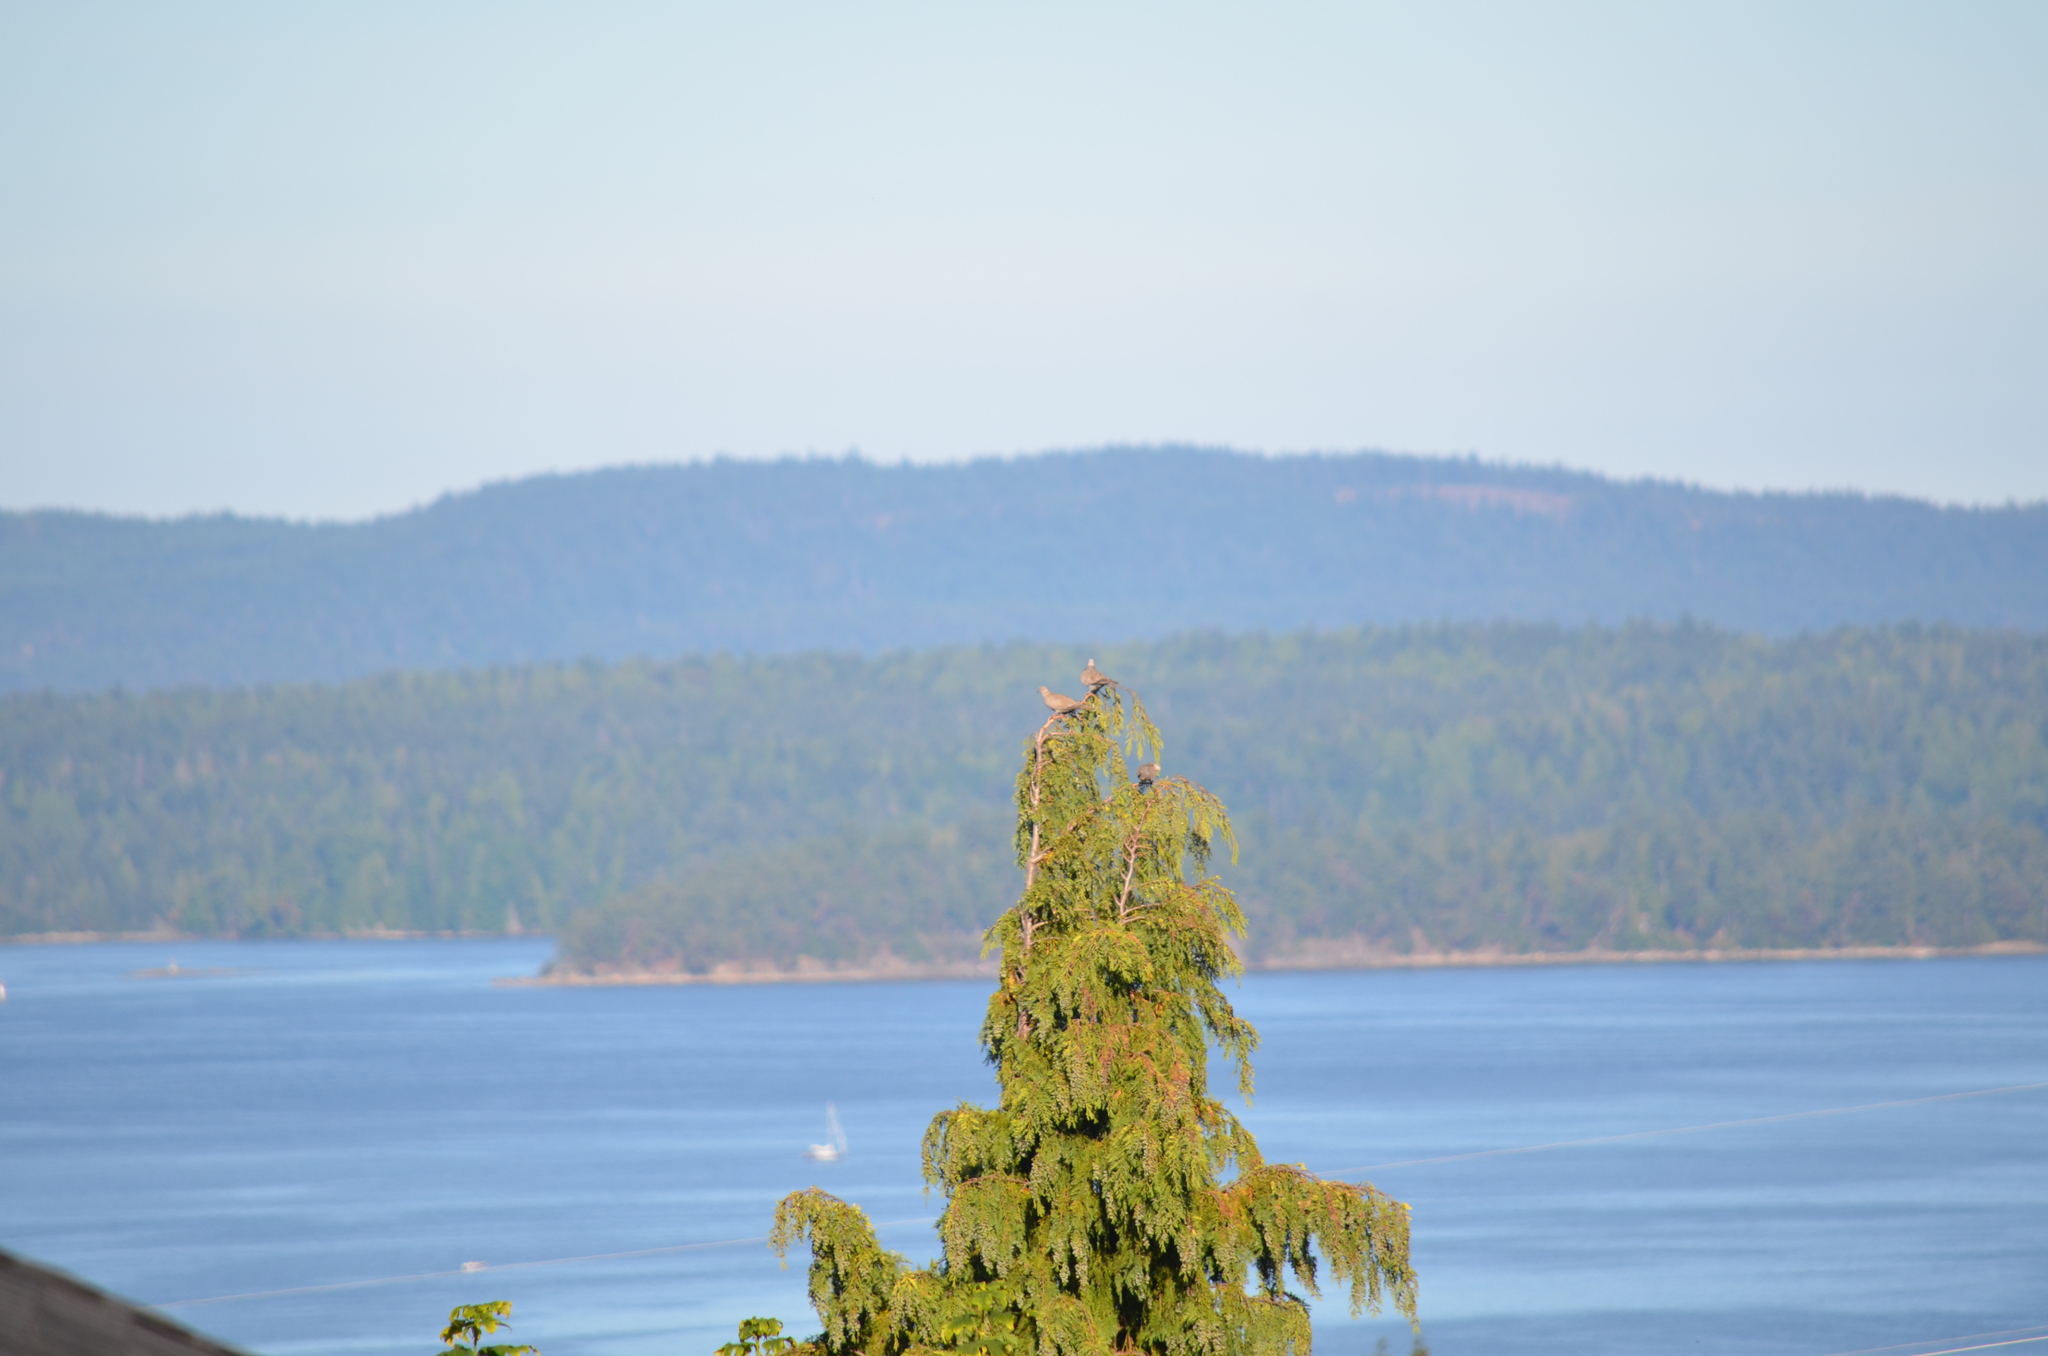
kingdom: Animalia
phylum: Chordata
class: Aves
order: Columbiformes
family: Columbidae
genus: Streptopelia
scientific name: Streptopelia decaocto
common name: Eurasian collared dove
